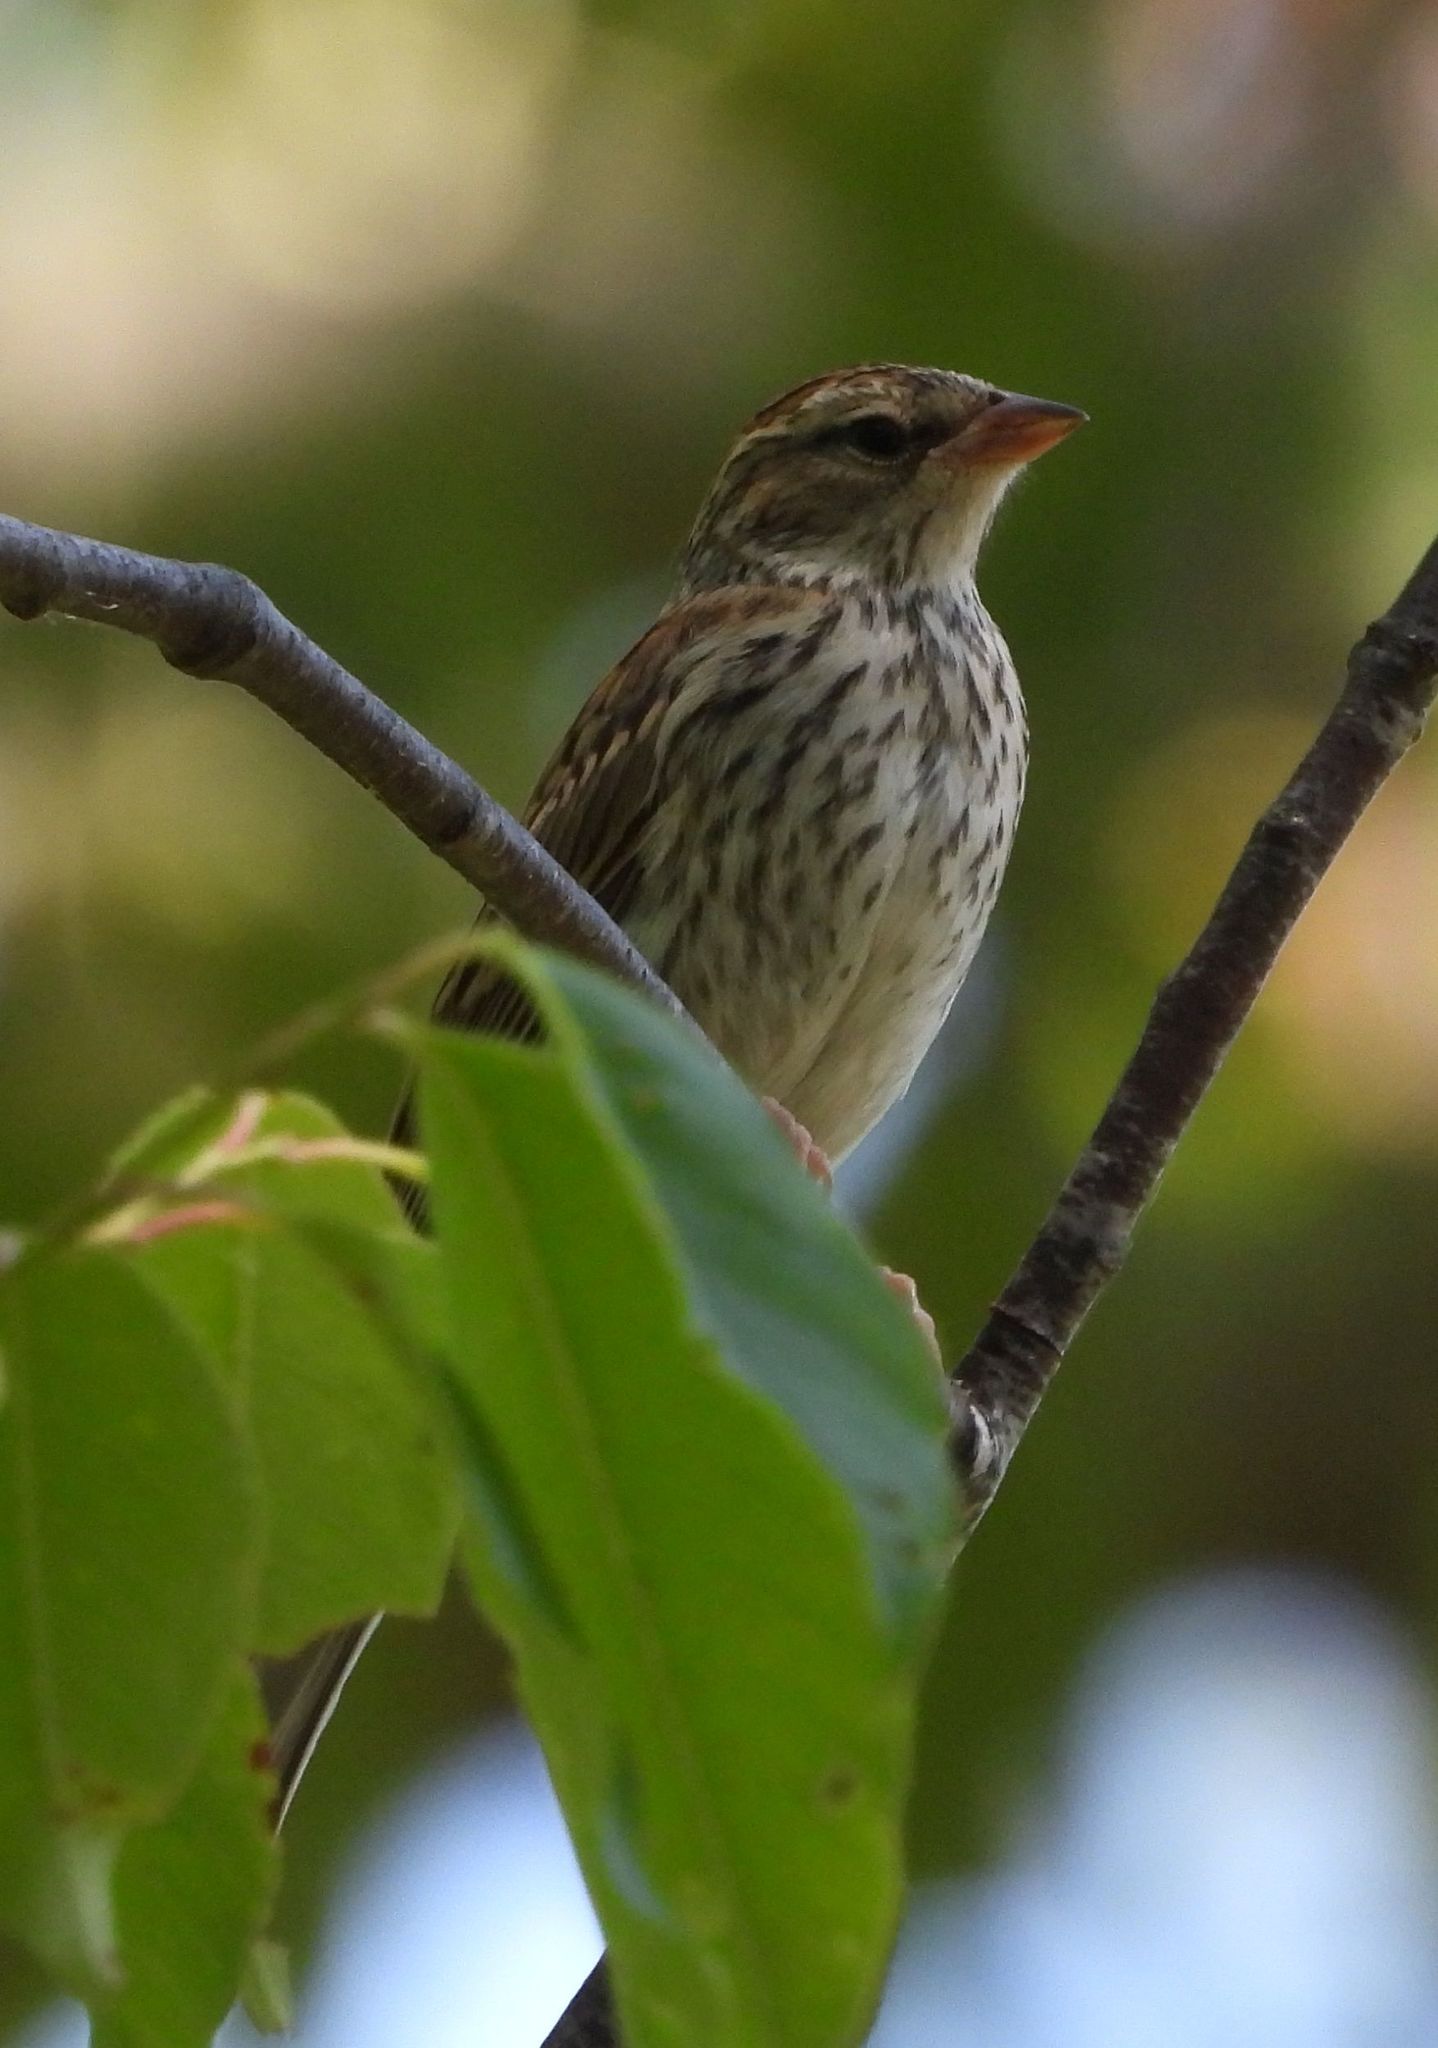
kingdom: Animalia
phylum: Chordata
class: Aves
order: Passeriformes
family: Passerellidae
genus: Spizella
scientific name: Spizella passerina
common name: Chipping sparrow
